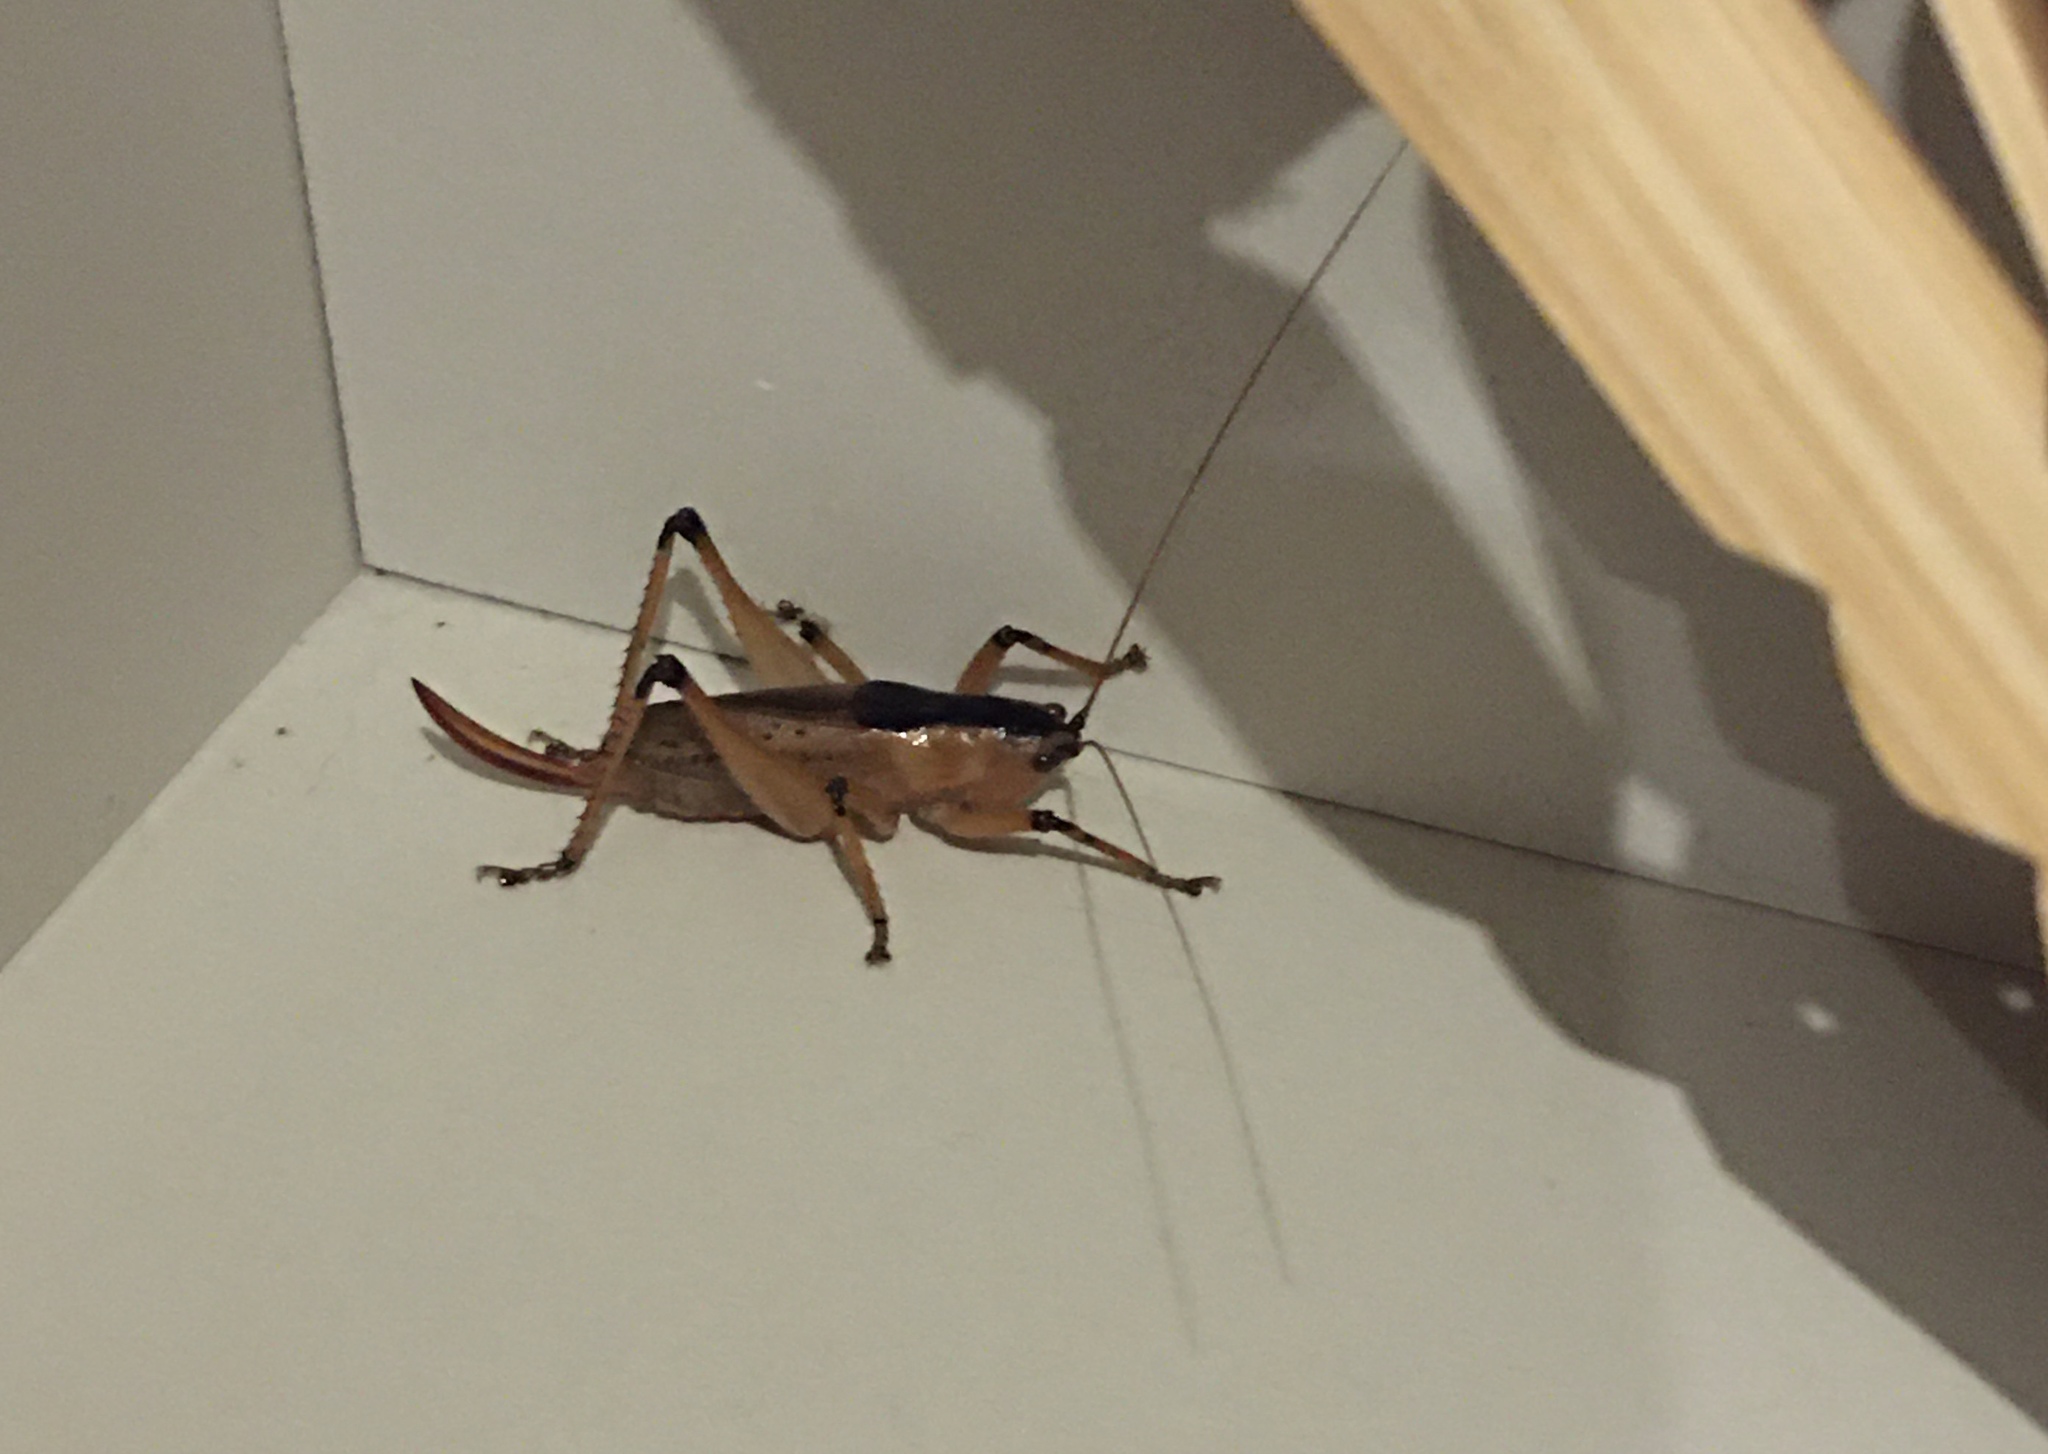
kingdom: Animalia
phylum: Arthropoda
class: Insecta
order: Orthoptera
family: Tettigoniidae
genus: Agraecia
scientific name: Agraecia agraecioides
